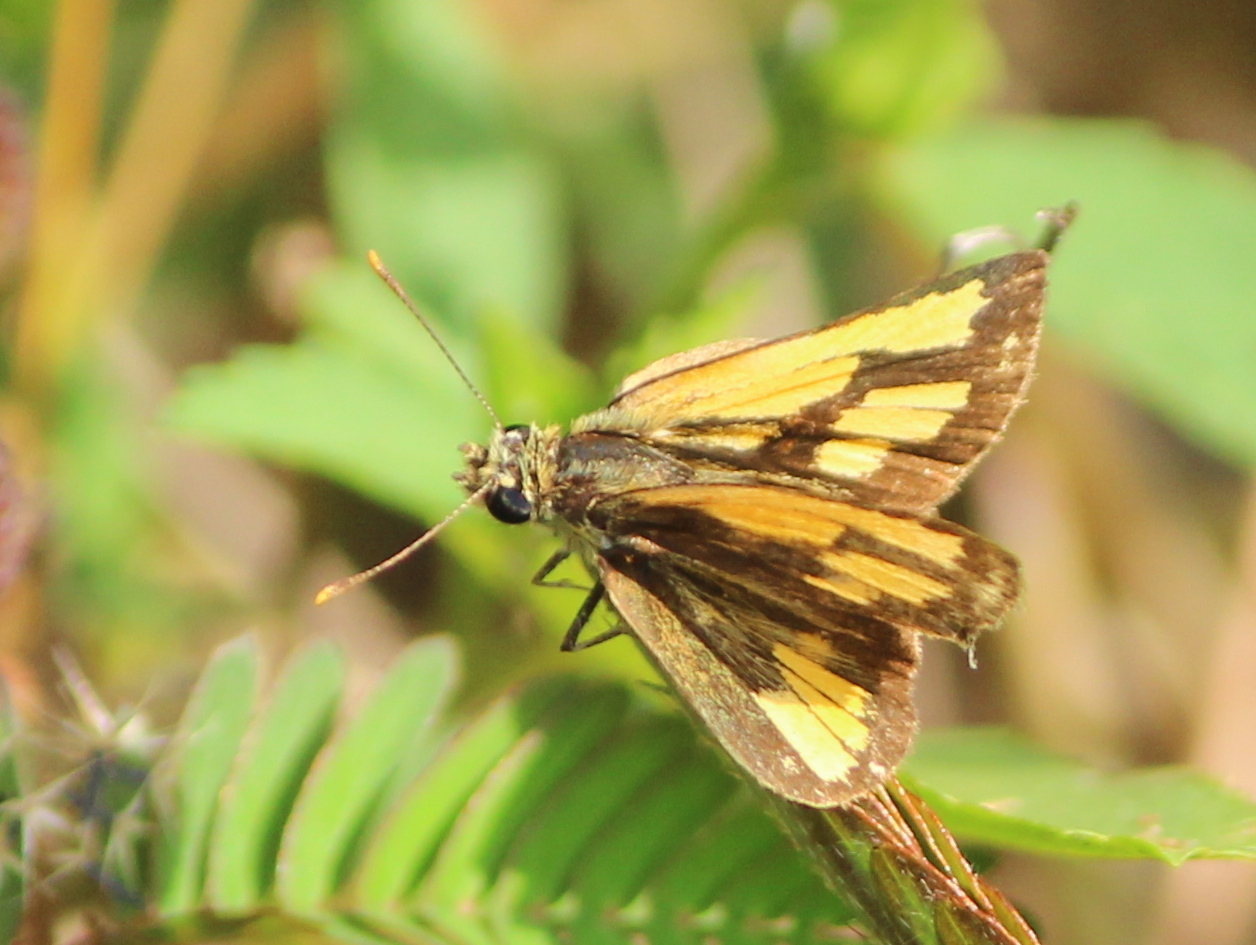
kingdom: Animalia
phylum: Arthropoda
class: Insecta
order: Lepidoptera
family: Hesperiidae
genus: Ampittia
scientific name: Ampittia dioscorides
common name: Common bush hopper
